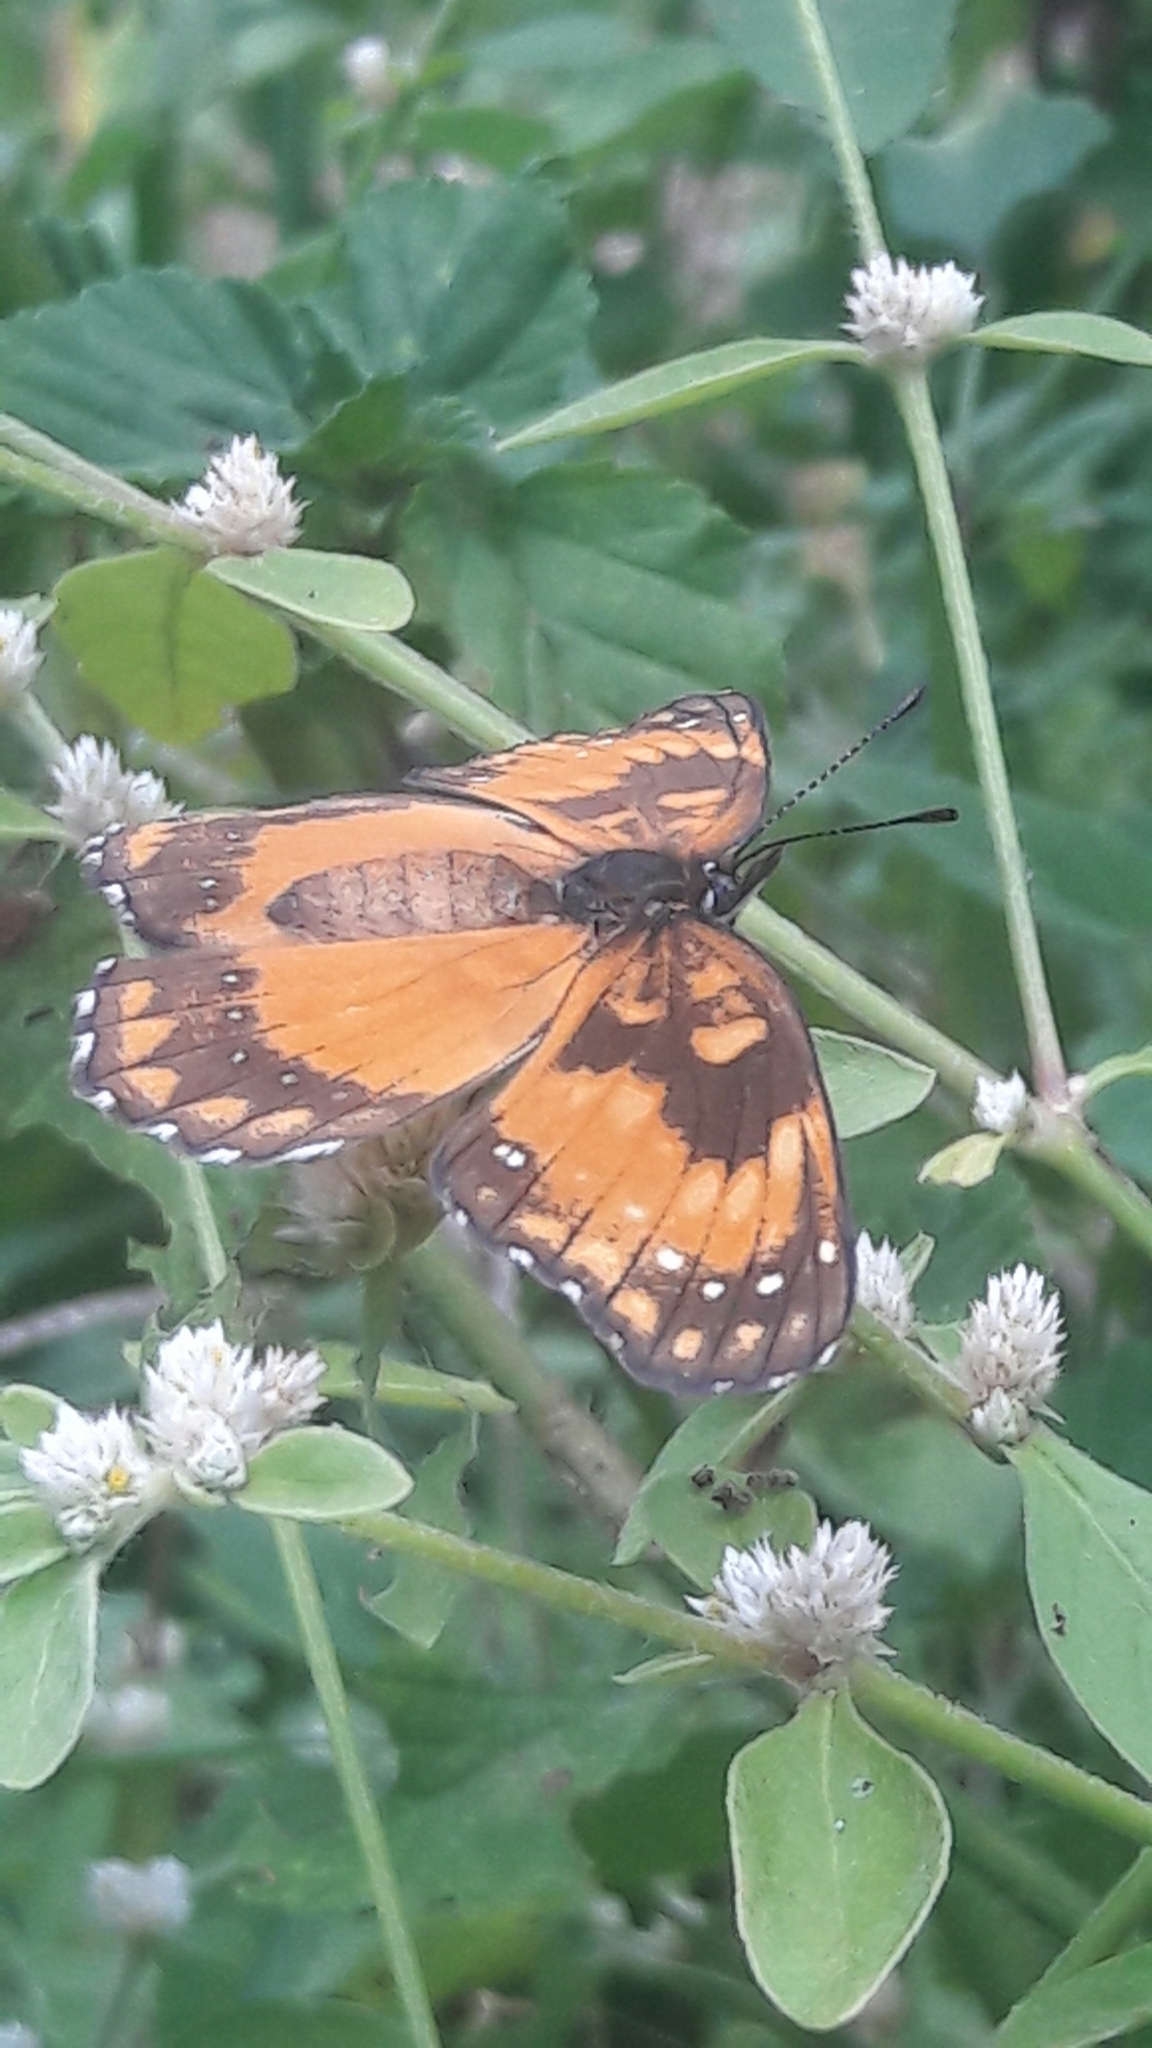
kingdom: Animalia
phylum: Arthropoda
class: Insecta
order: Lepidoptera
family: Nymphalidae
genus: Chlosyne
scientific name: Chlosyne lacinia
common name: Bordered patch
